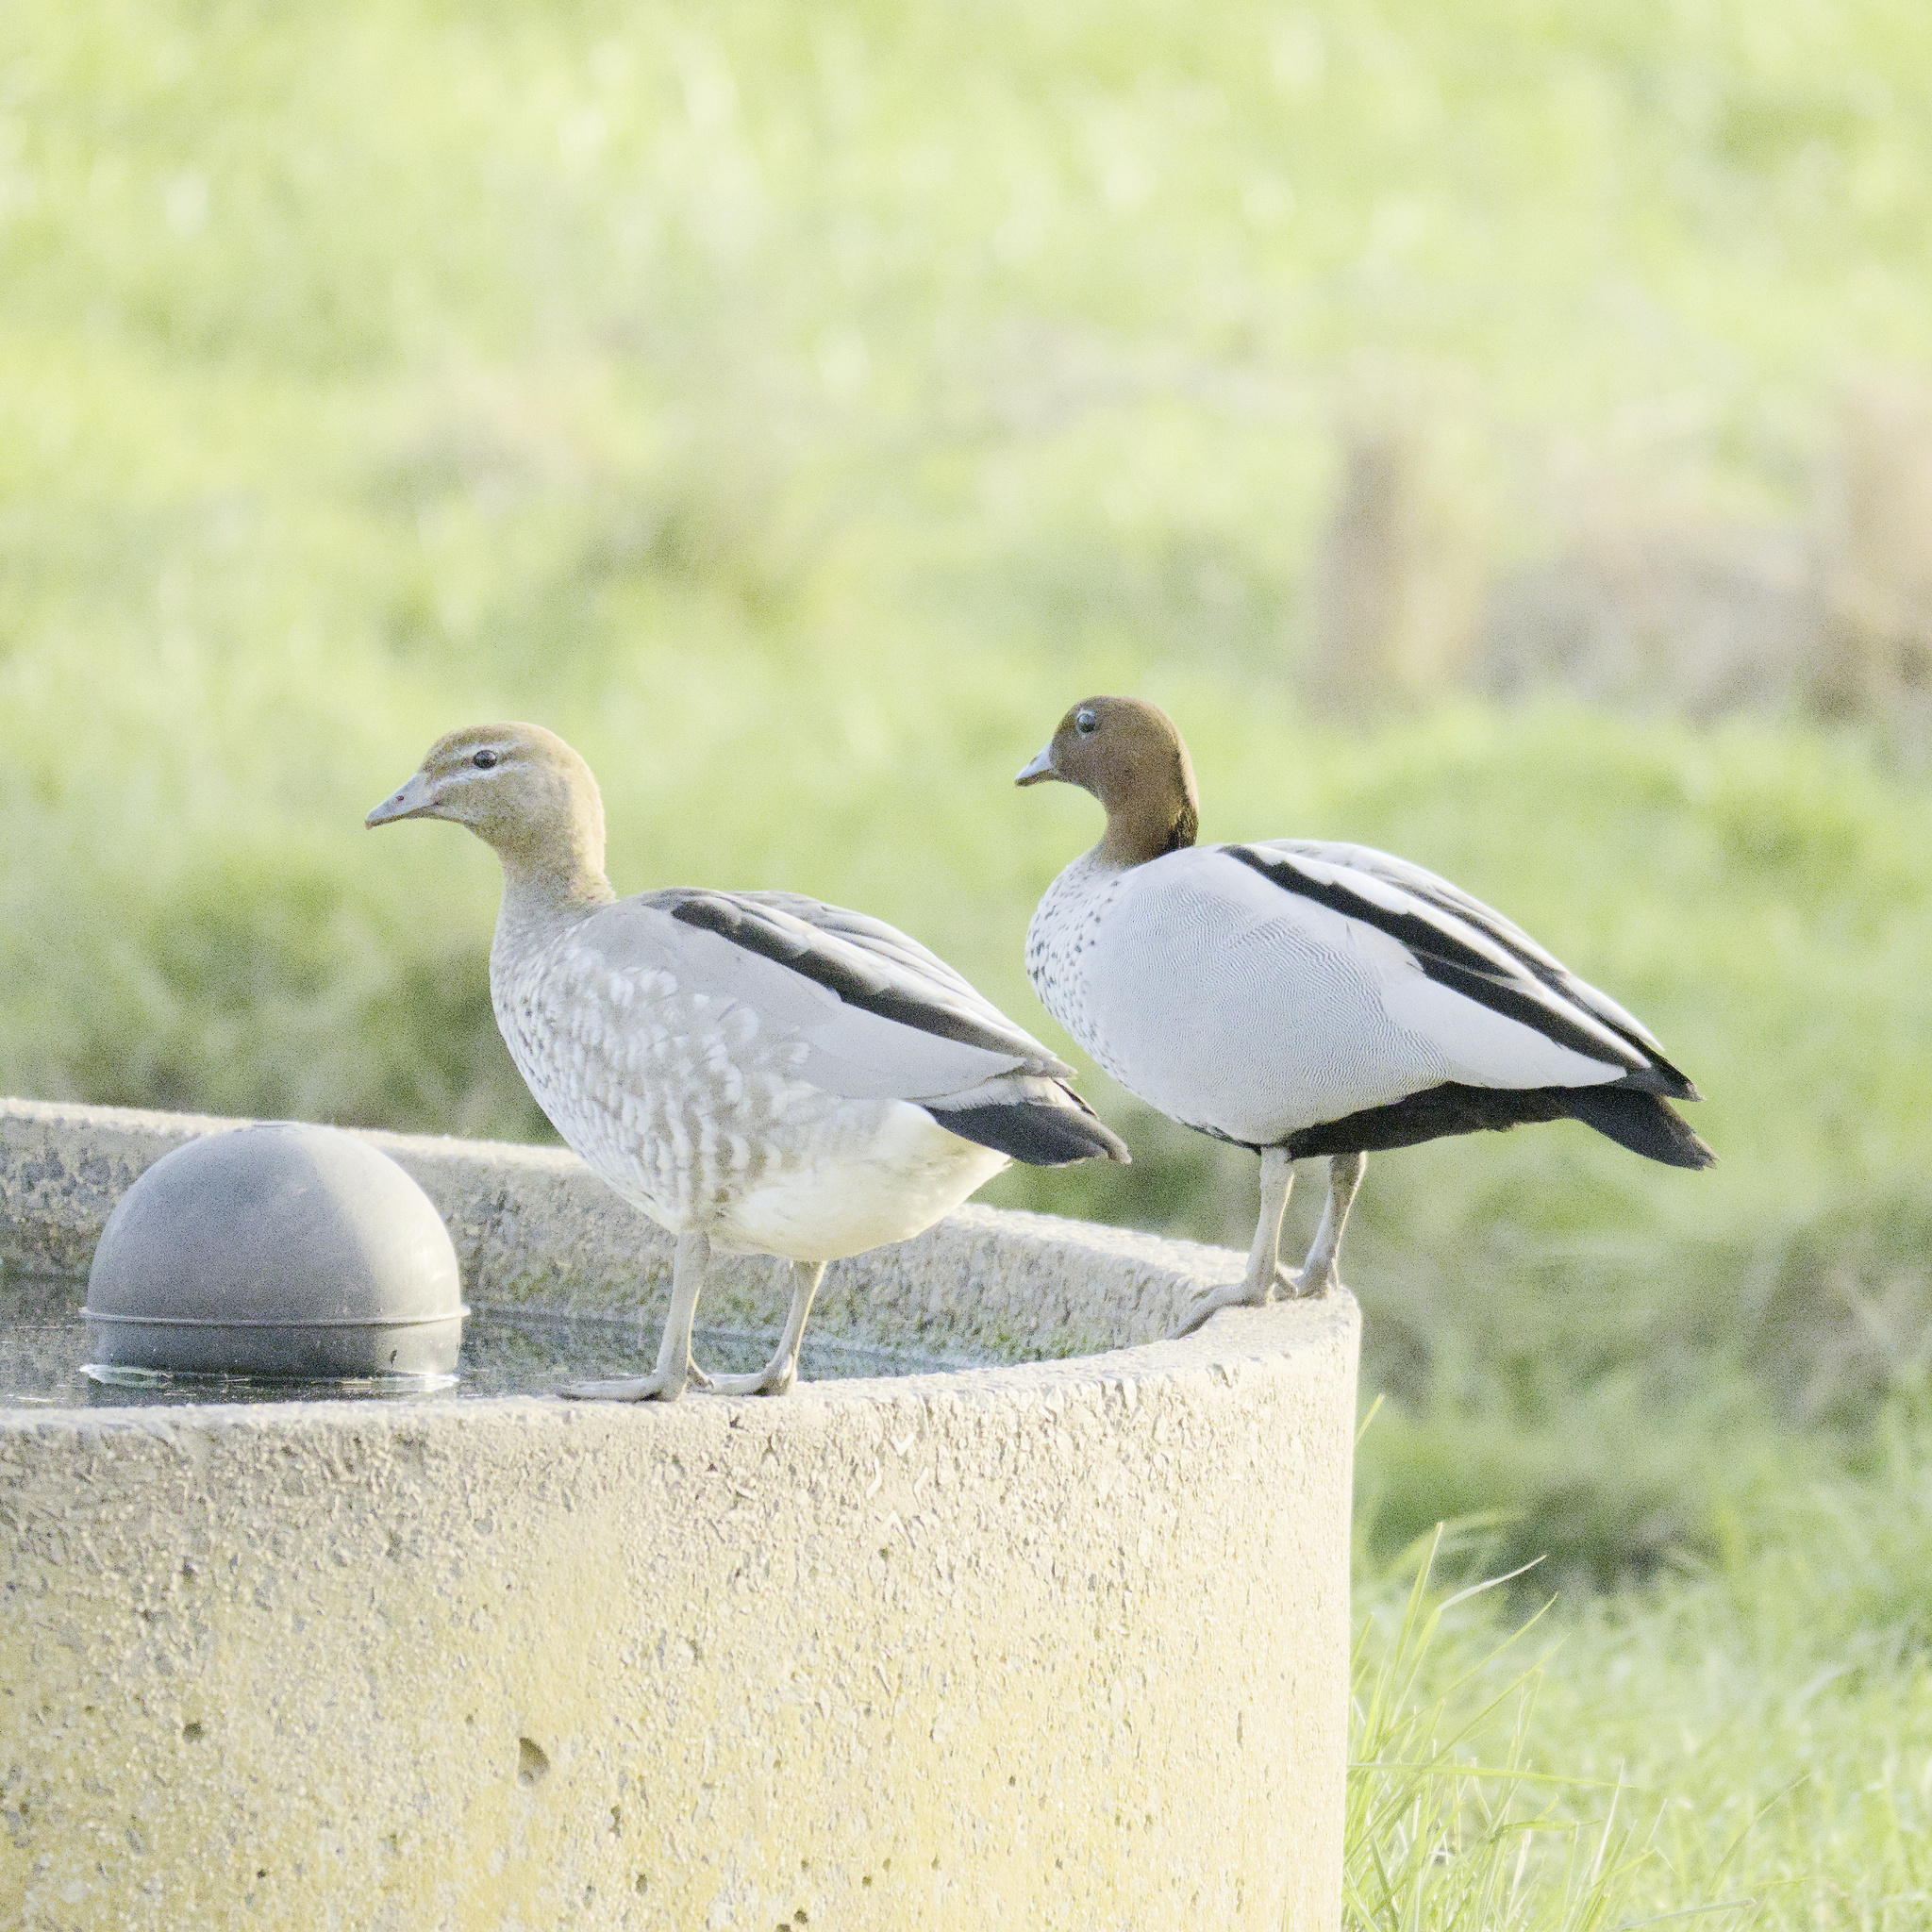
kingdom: Animalia
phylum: Chordata
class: Aves
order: Anseriformes
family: Anatidae
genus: Chenonetta
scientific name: Chenonetta jubata
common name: Maned duck
